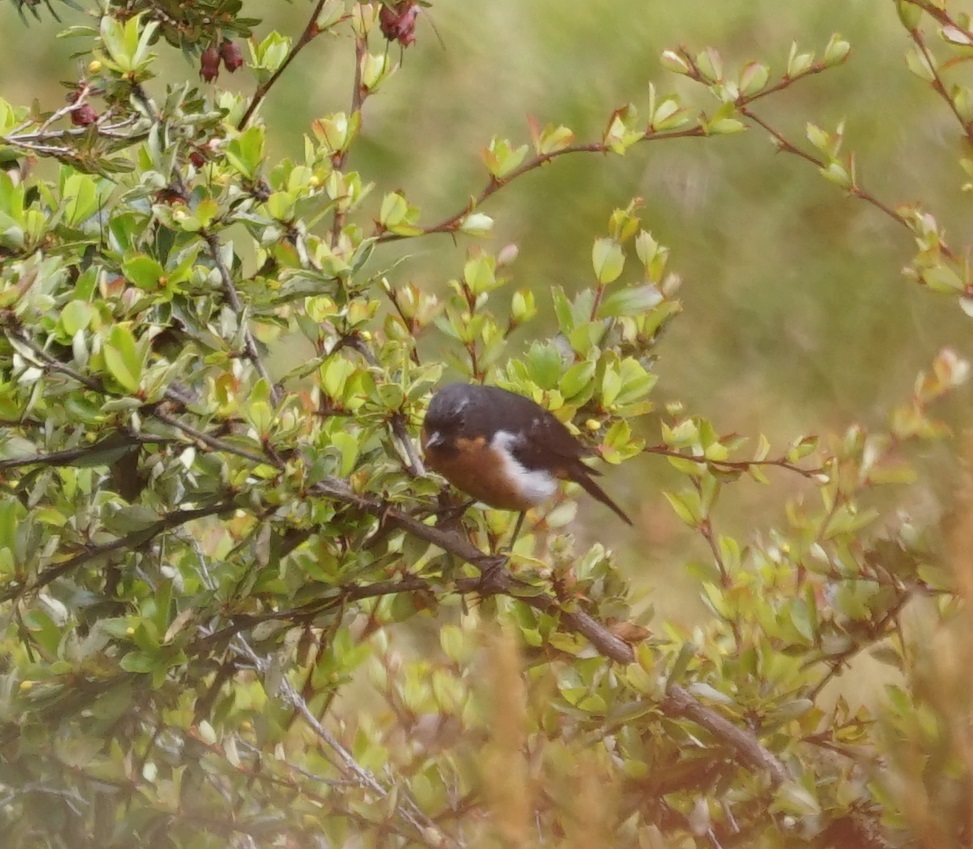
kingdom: Animalia
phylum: Chordata
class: Aves
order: Passeriformes
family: Thraupidae
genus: Diglossa
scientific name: Diglossa brunneiventris
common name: Black-throated flowerpiercer
